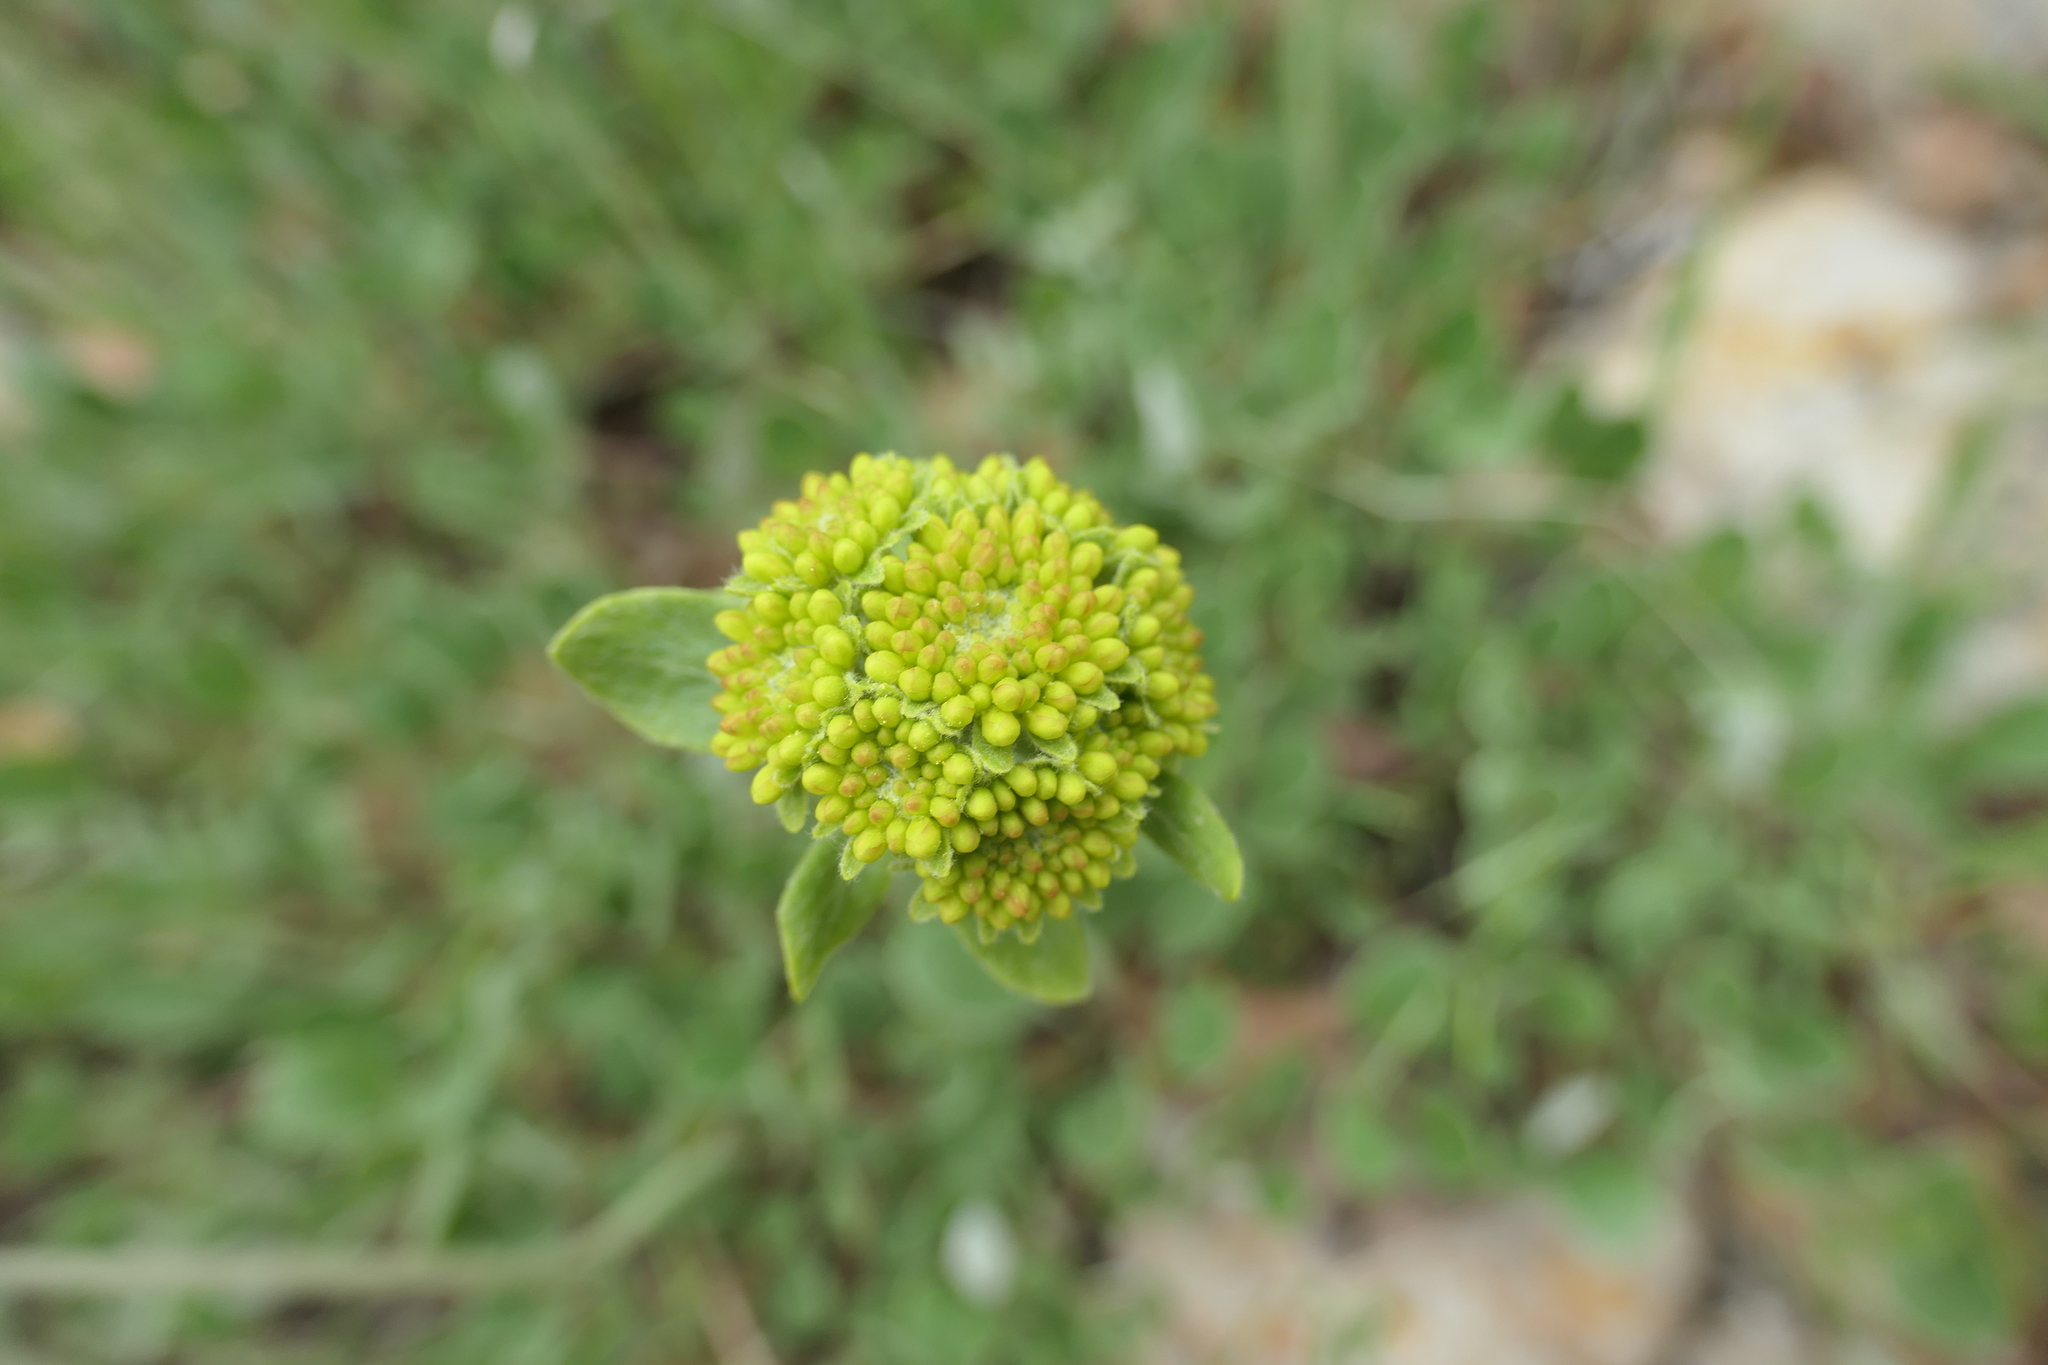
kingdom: Plantae
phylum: Tracheophyta
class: Magnoliopsida
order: Caryophyllales
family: Polygonaceae
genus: Eriogonum
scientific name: Eriogonum umbellatum
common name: Sulfur-buckwheat
